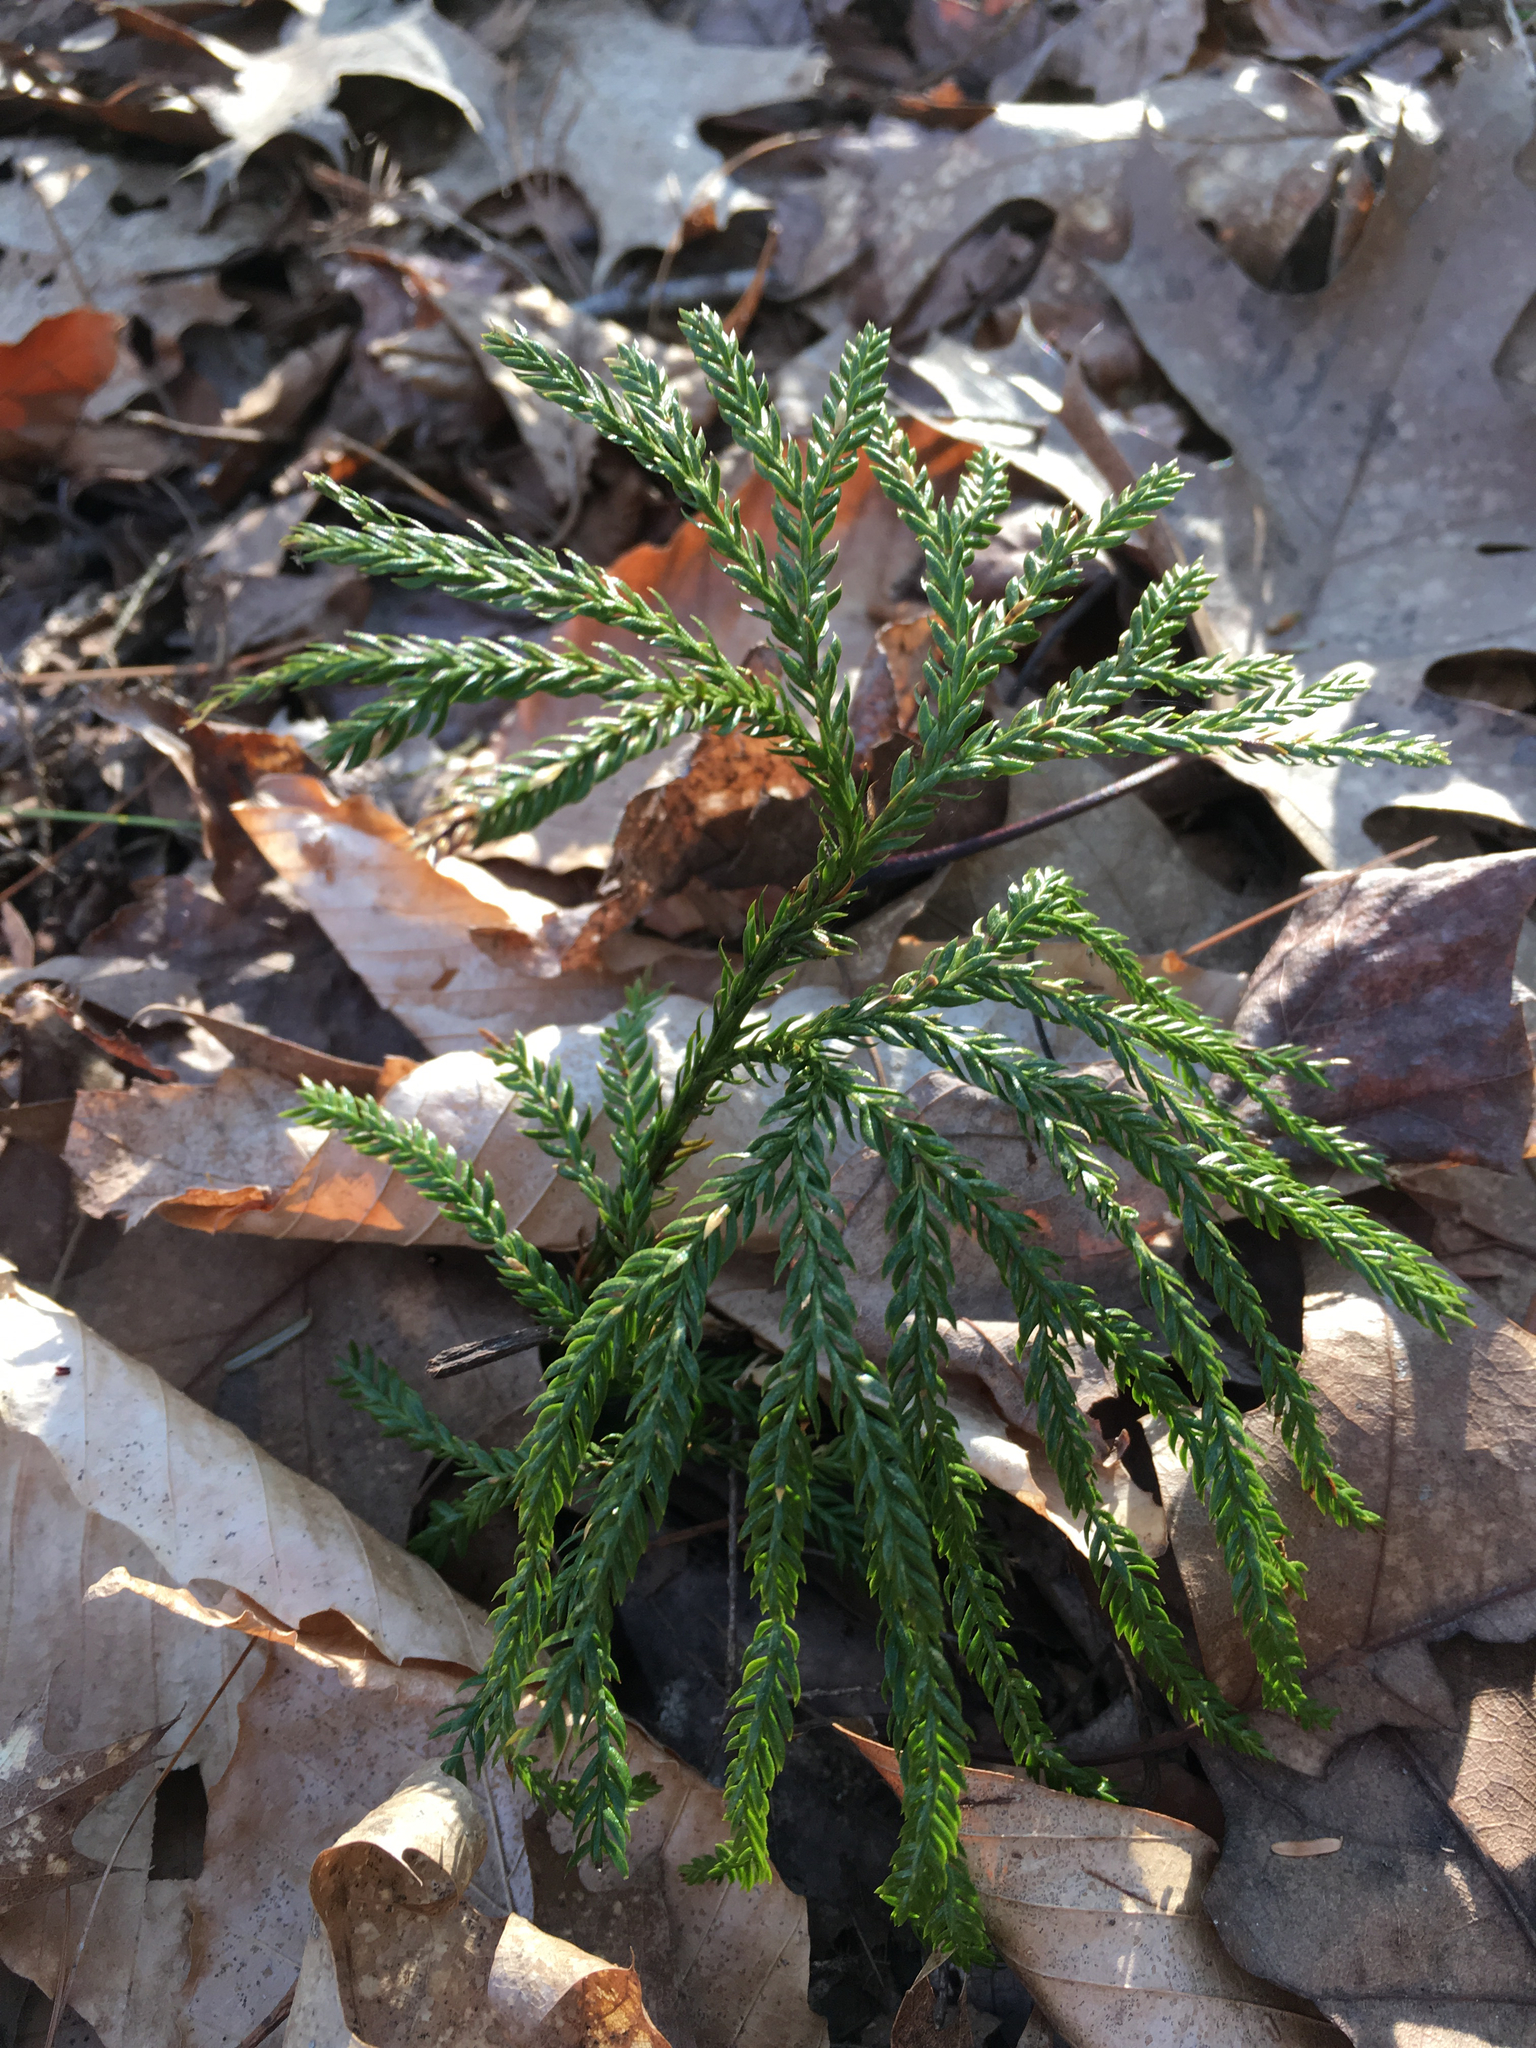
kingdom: Plantae
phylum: Tracheophyta
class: Lycopodiopsida
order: Lycopodiales
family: Lycopodiaceae
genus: Dendrolycopodium
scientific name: Dendrolycopodium dendroideum
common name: Northern tree-clubmoss
